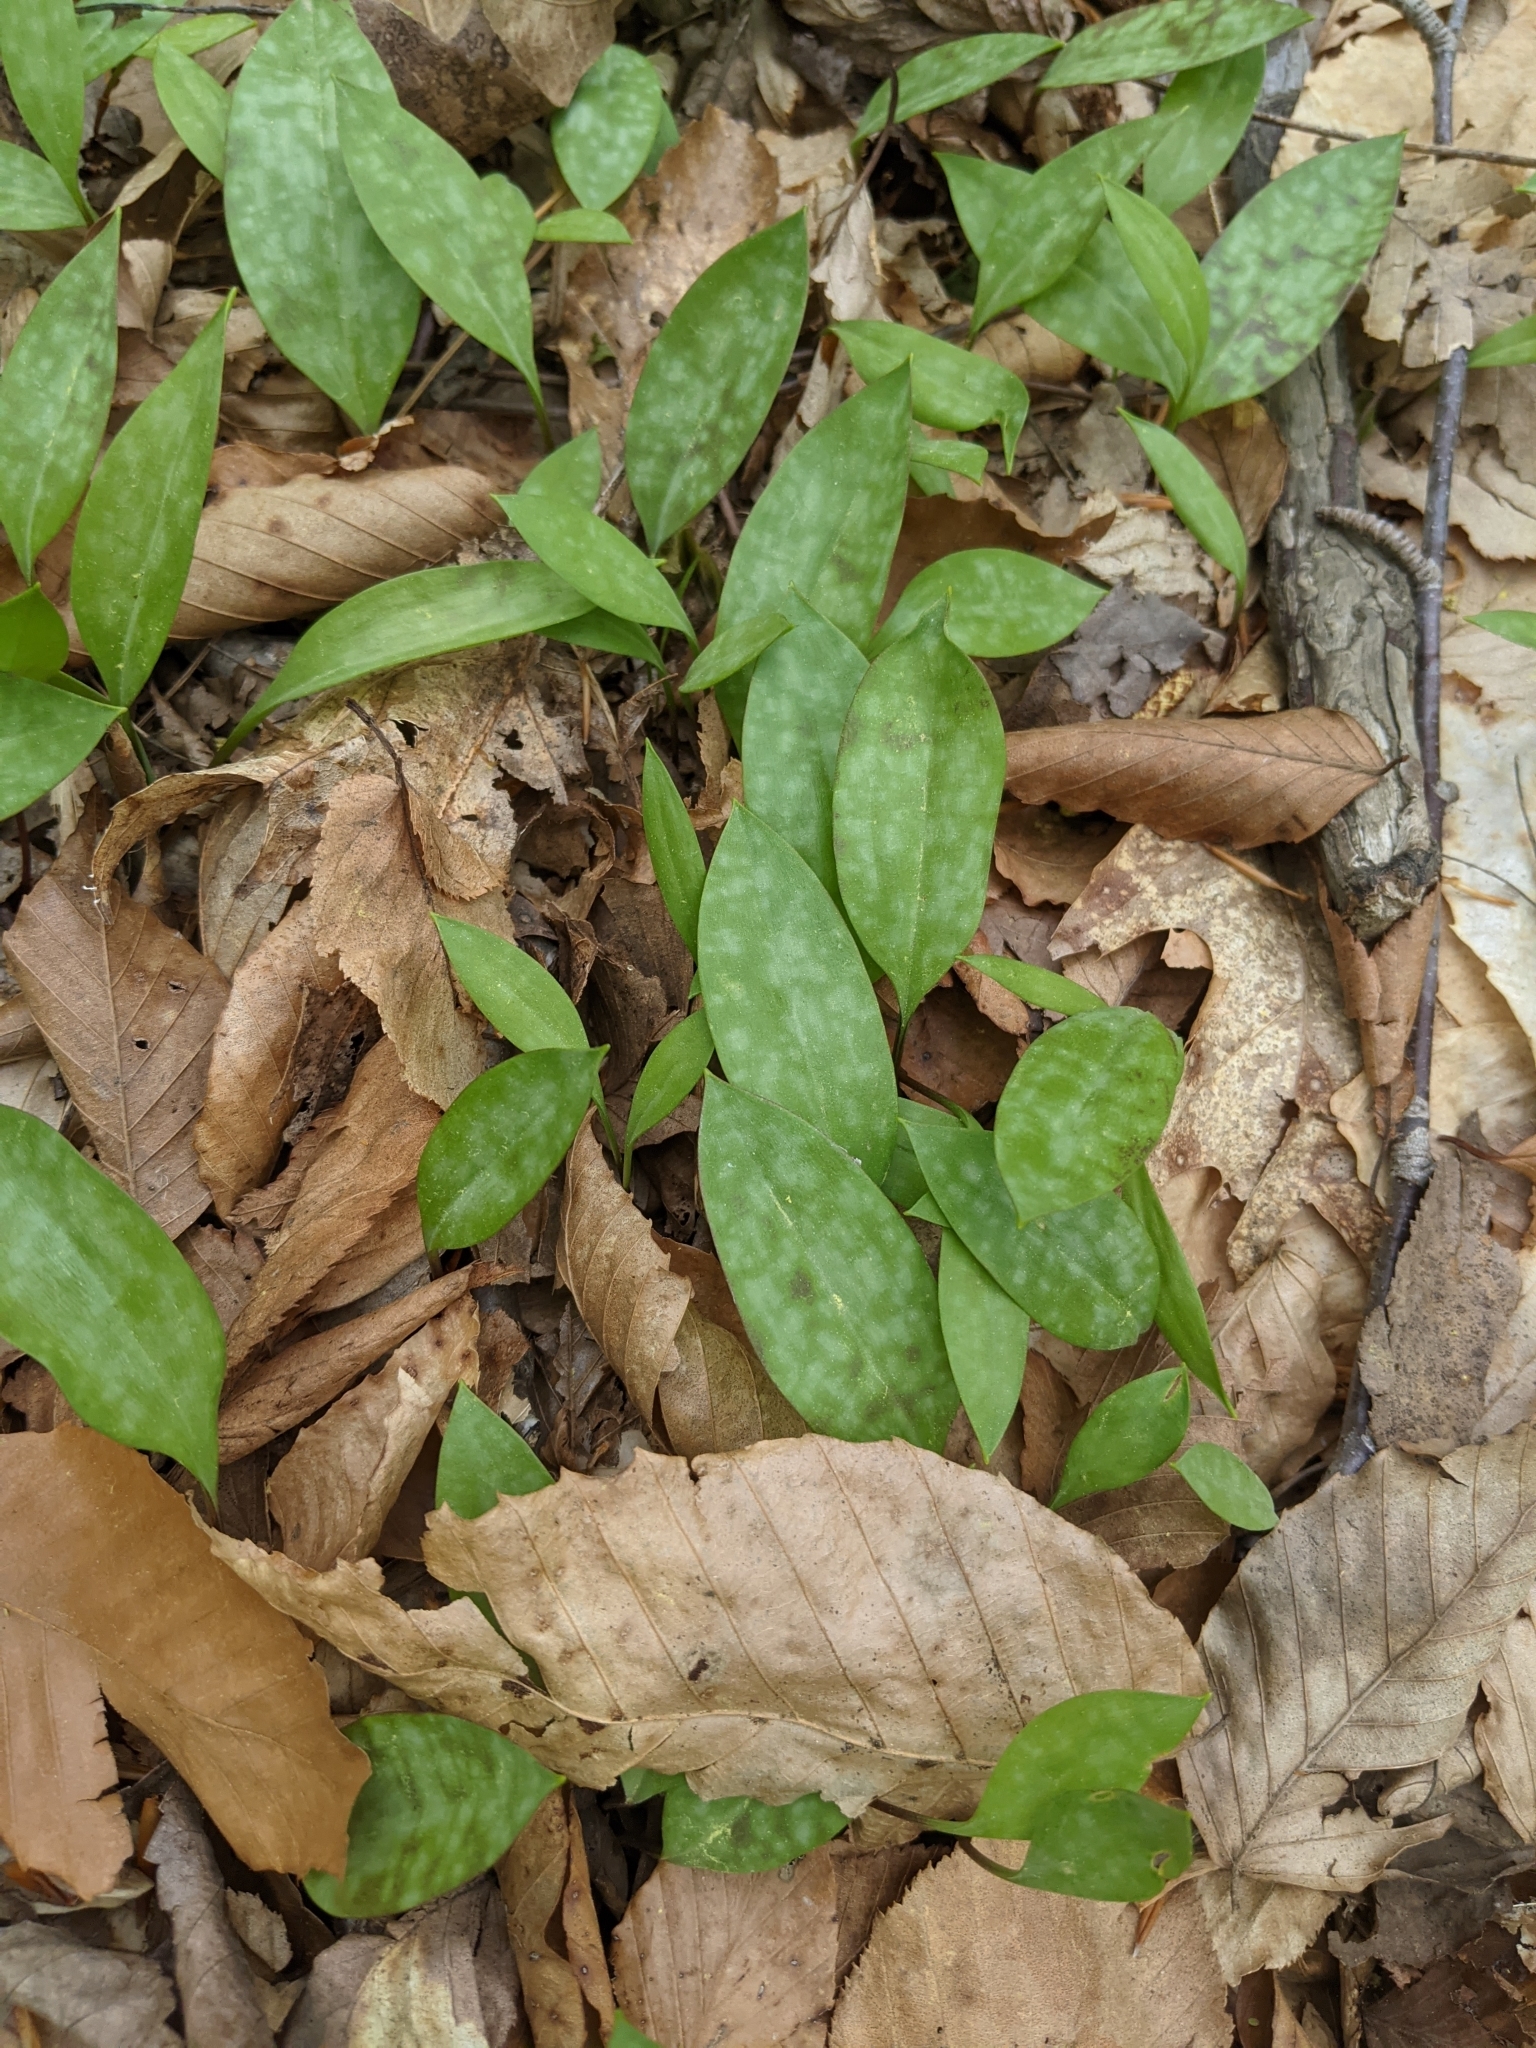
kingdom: Plantae
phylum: Tracheophyta
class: Liliopsida
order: Liliales
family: Liliaceae
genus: Erythronium
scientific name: Erythronium americanum
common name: Yellow adder's-tongue
